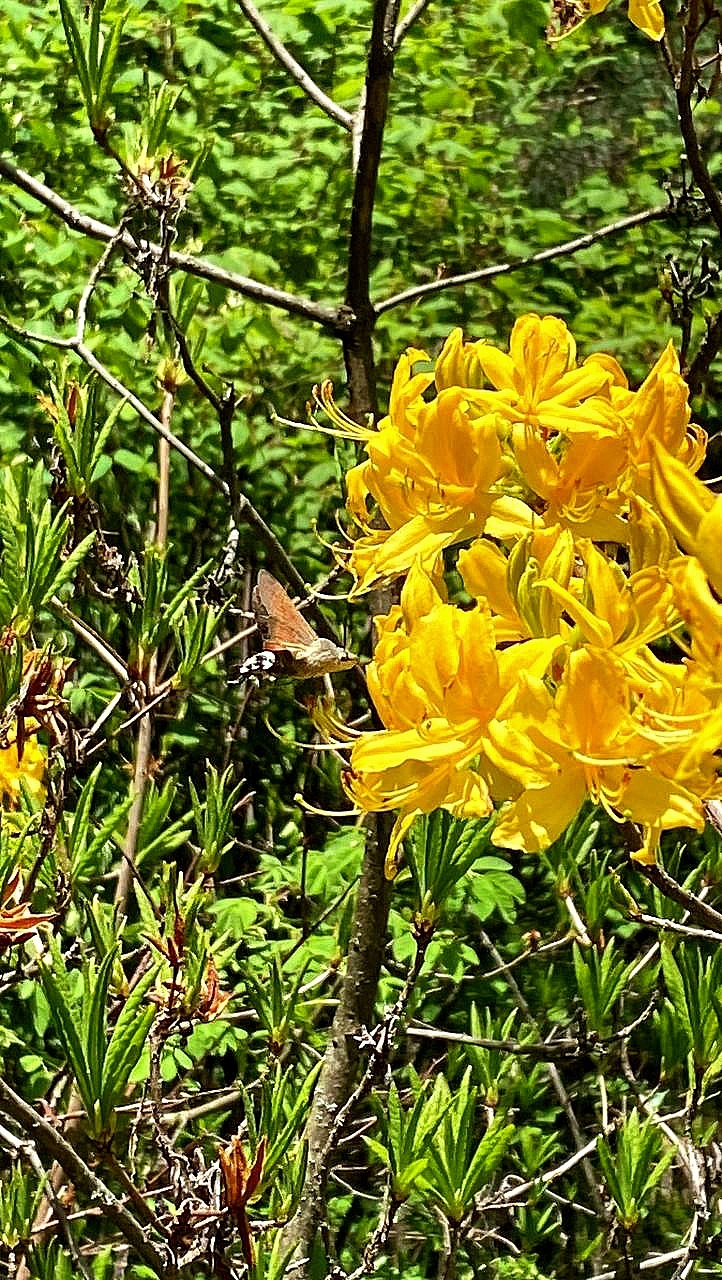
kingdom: Animalia
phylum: Arthropoda
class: Insecta
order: Lepidoptera
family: Sphingidae
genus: Macroglossum
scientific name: Macroglossum stellatarum
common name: Humming-bird hawk-moth
